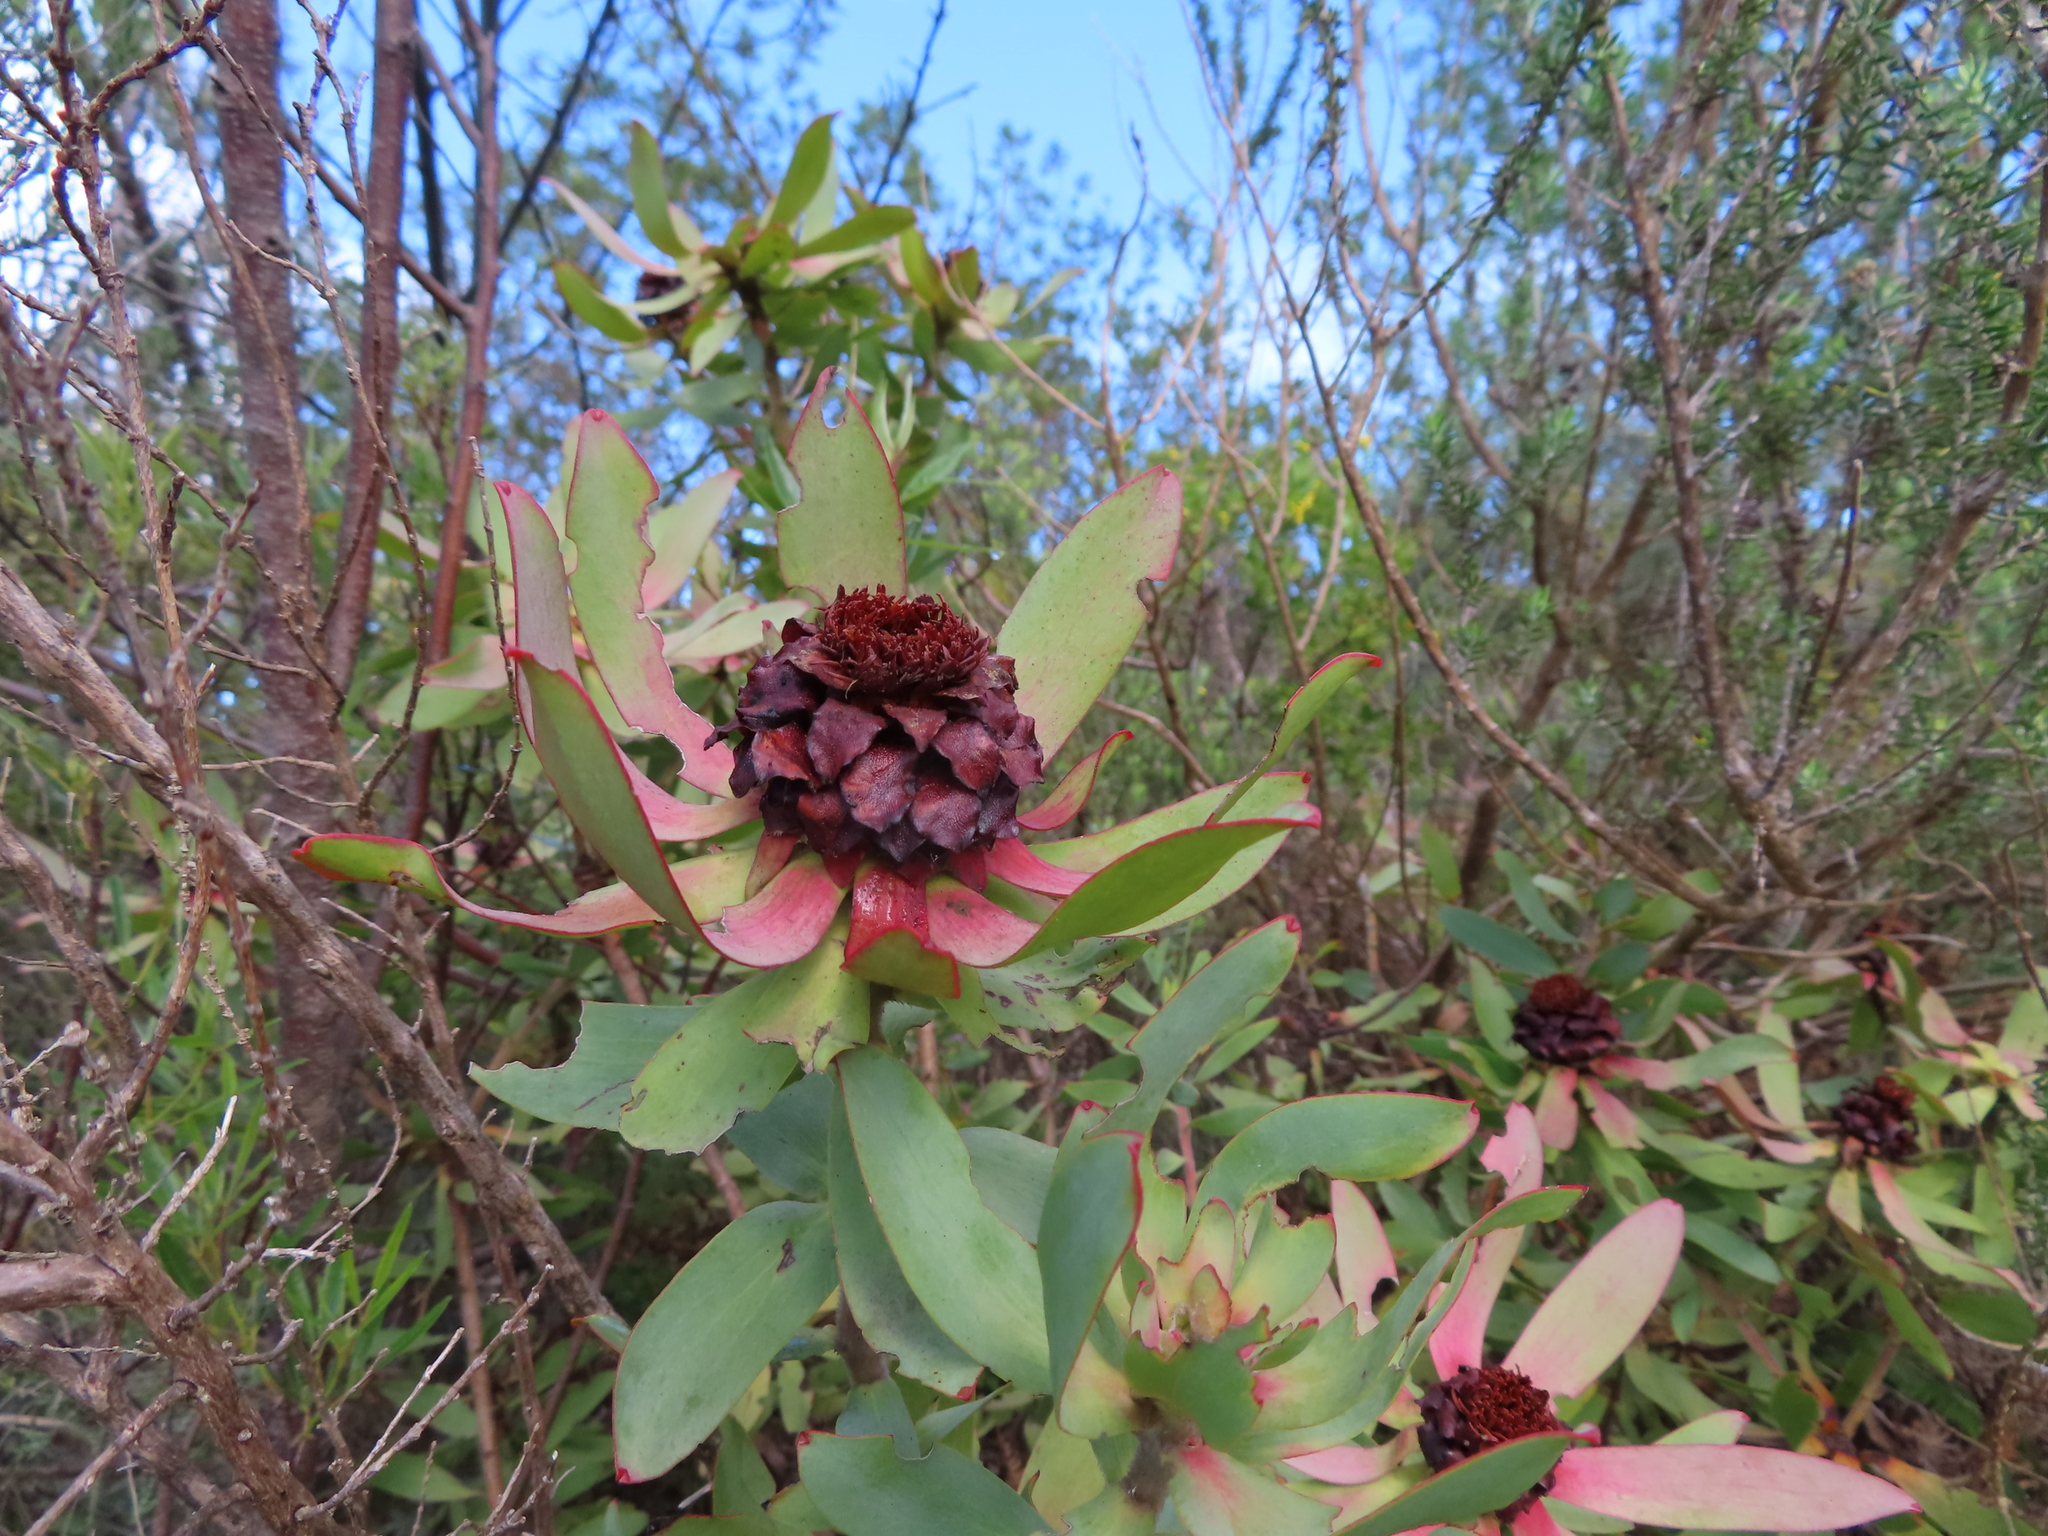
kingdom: Plantae
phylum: Tracheophyta
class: Magnoliopsida
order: Proteales
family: Proteaceae
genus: Leucadendron
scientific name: Leucadendron tinctum
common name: Spicy conebush
